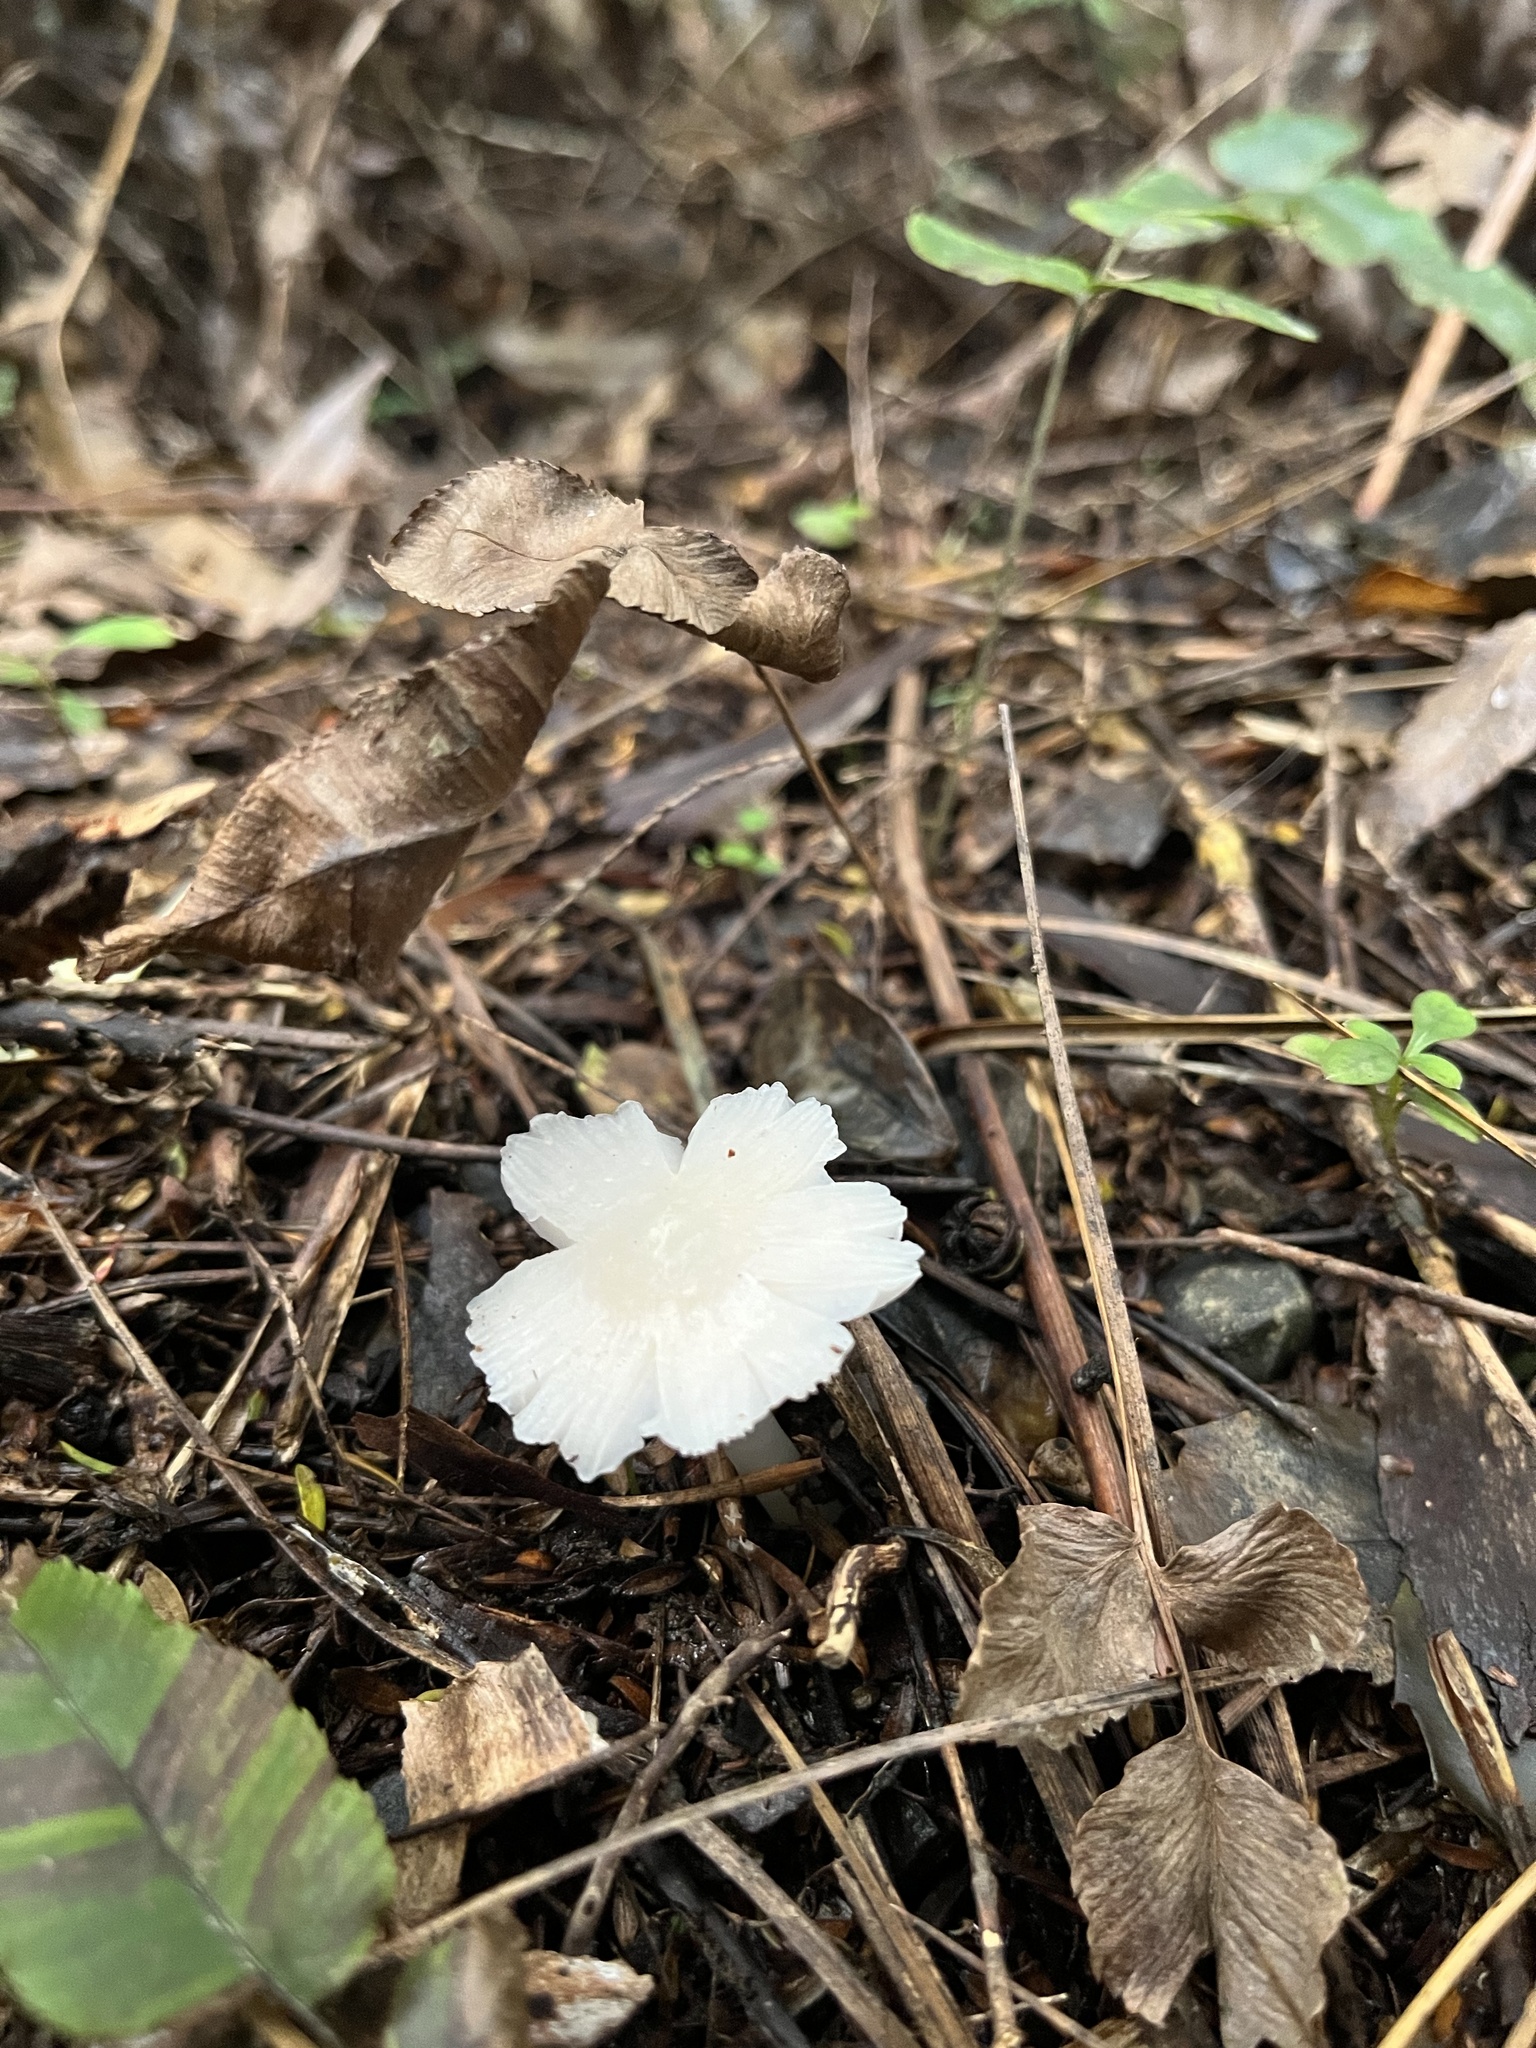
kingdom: Fungi
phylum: Basidiomycota
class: Agaricomycetes
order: Agaricales
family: Hygrophoraceae
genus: Humidicutis
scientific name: Humidicutis mavis
